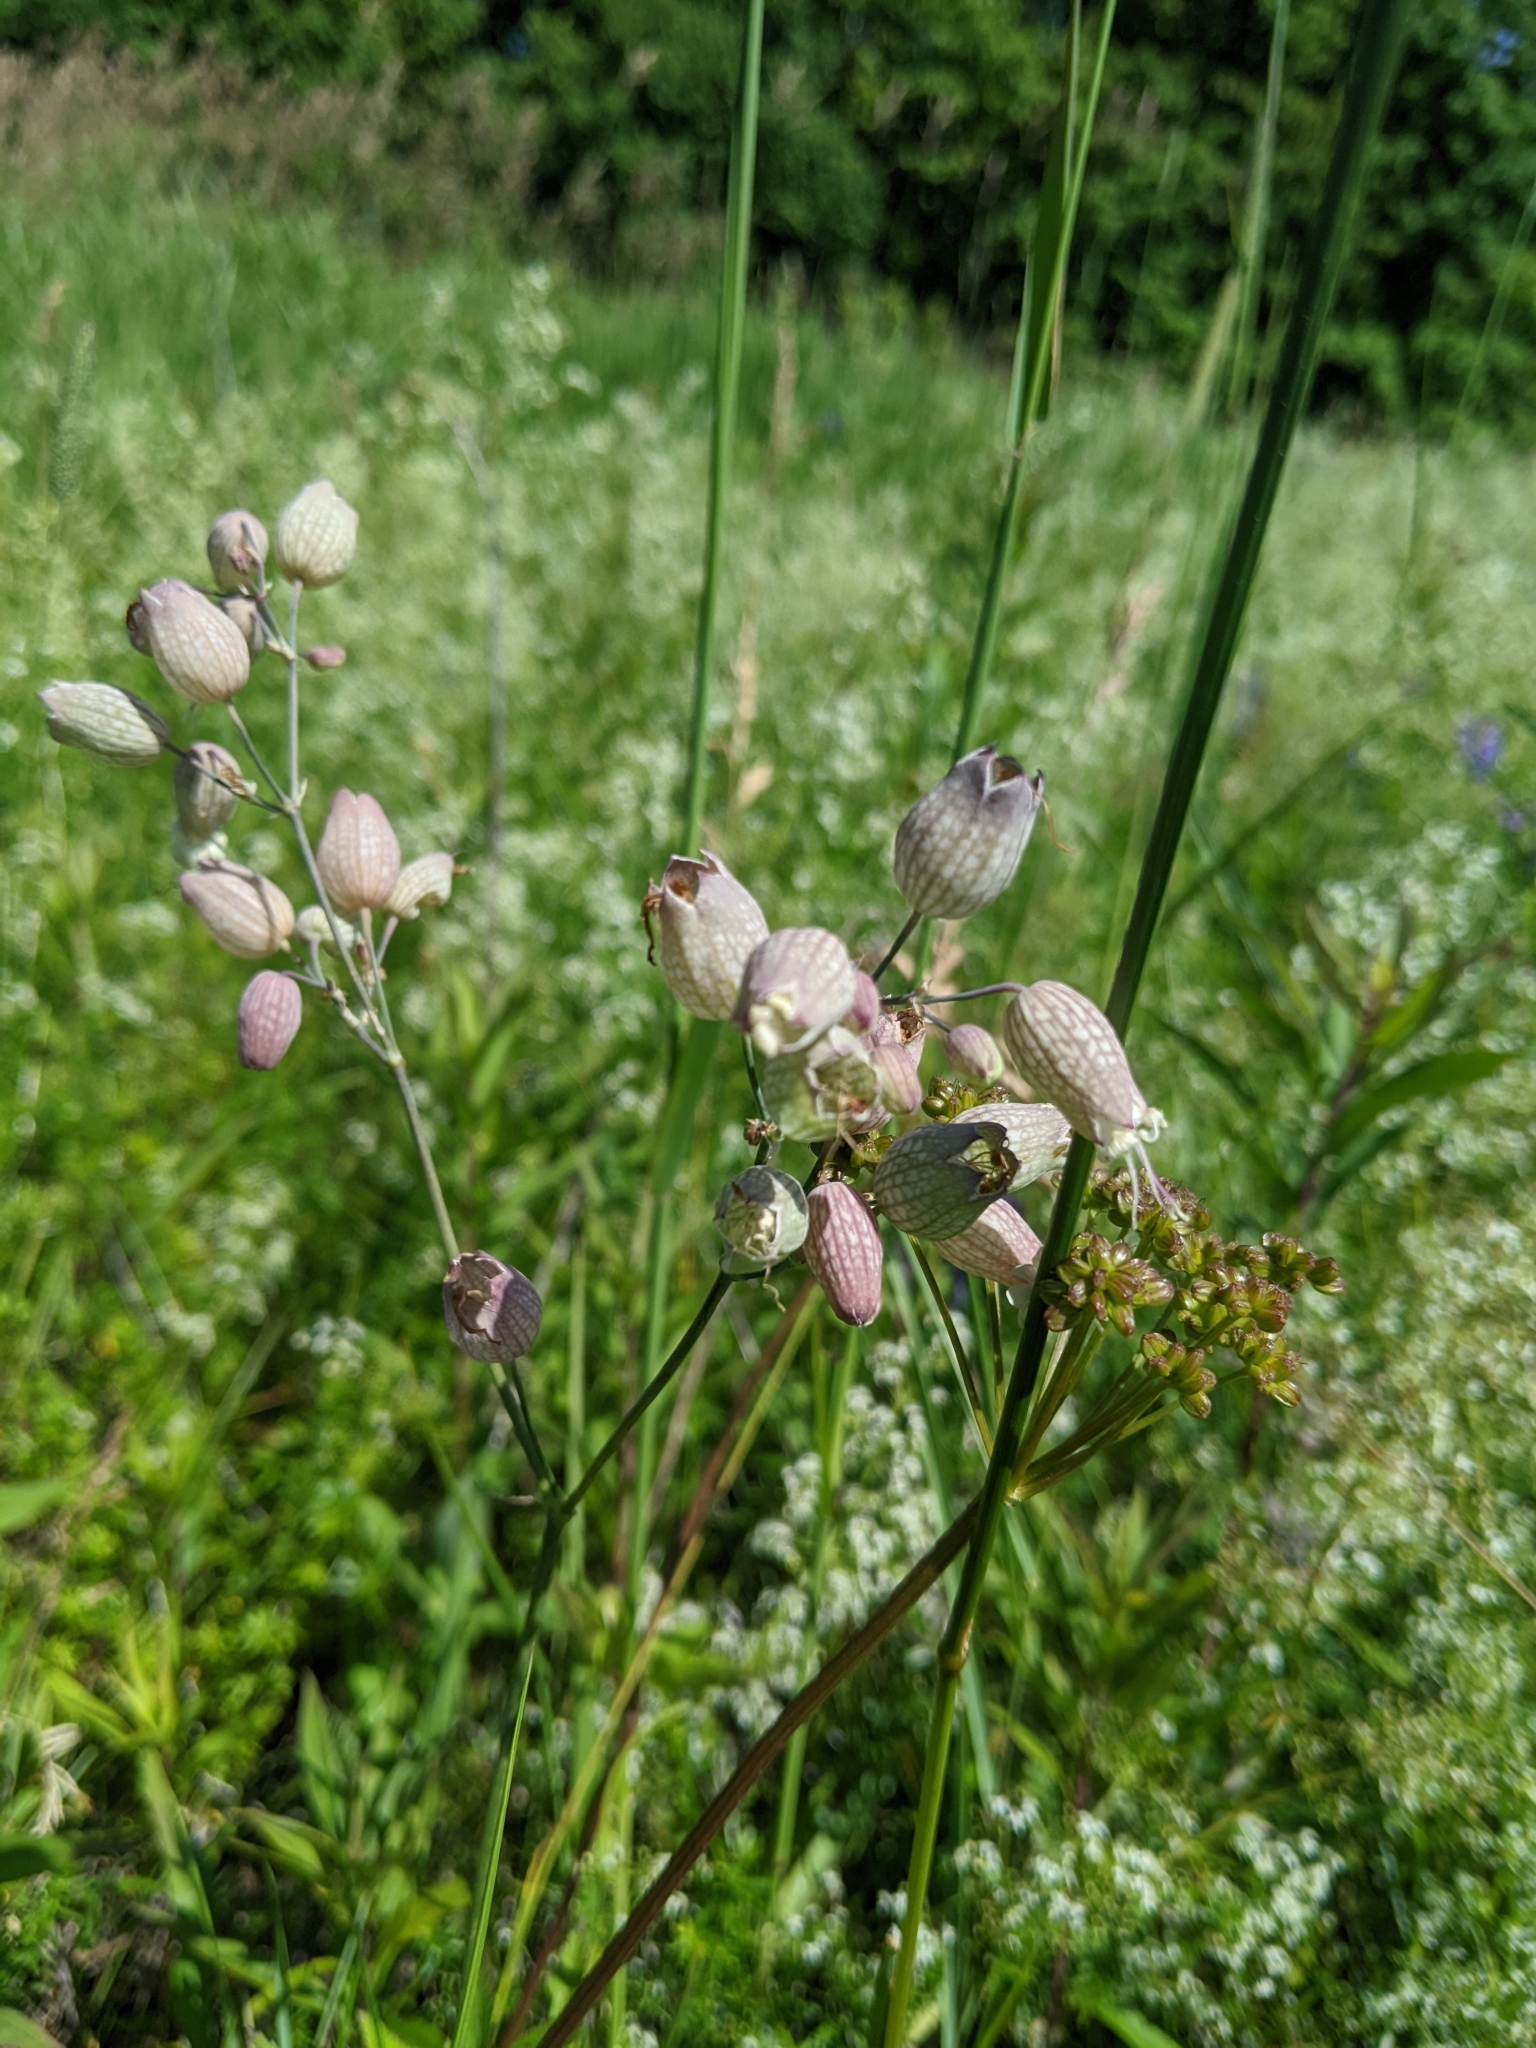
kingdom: Plantae
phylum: Tracheophyta
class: Magnoliopsida
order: Caryophyllales
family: Caryophyllaceae
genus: Silene
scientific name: Silene vulgaris
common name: Bladder campion
